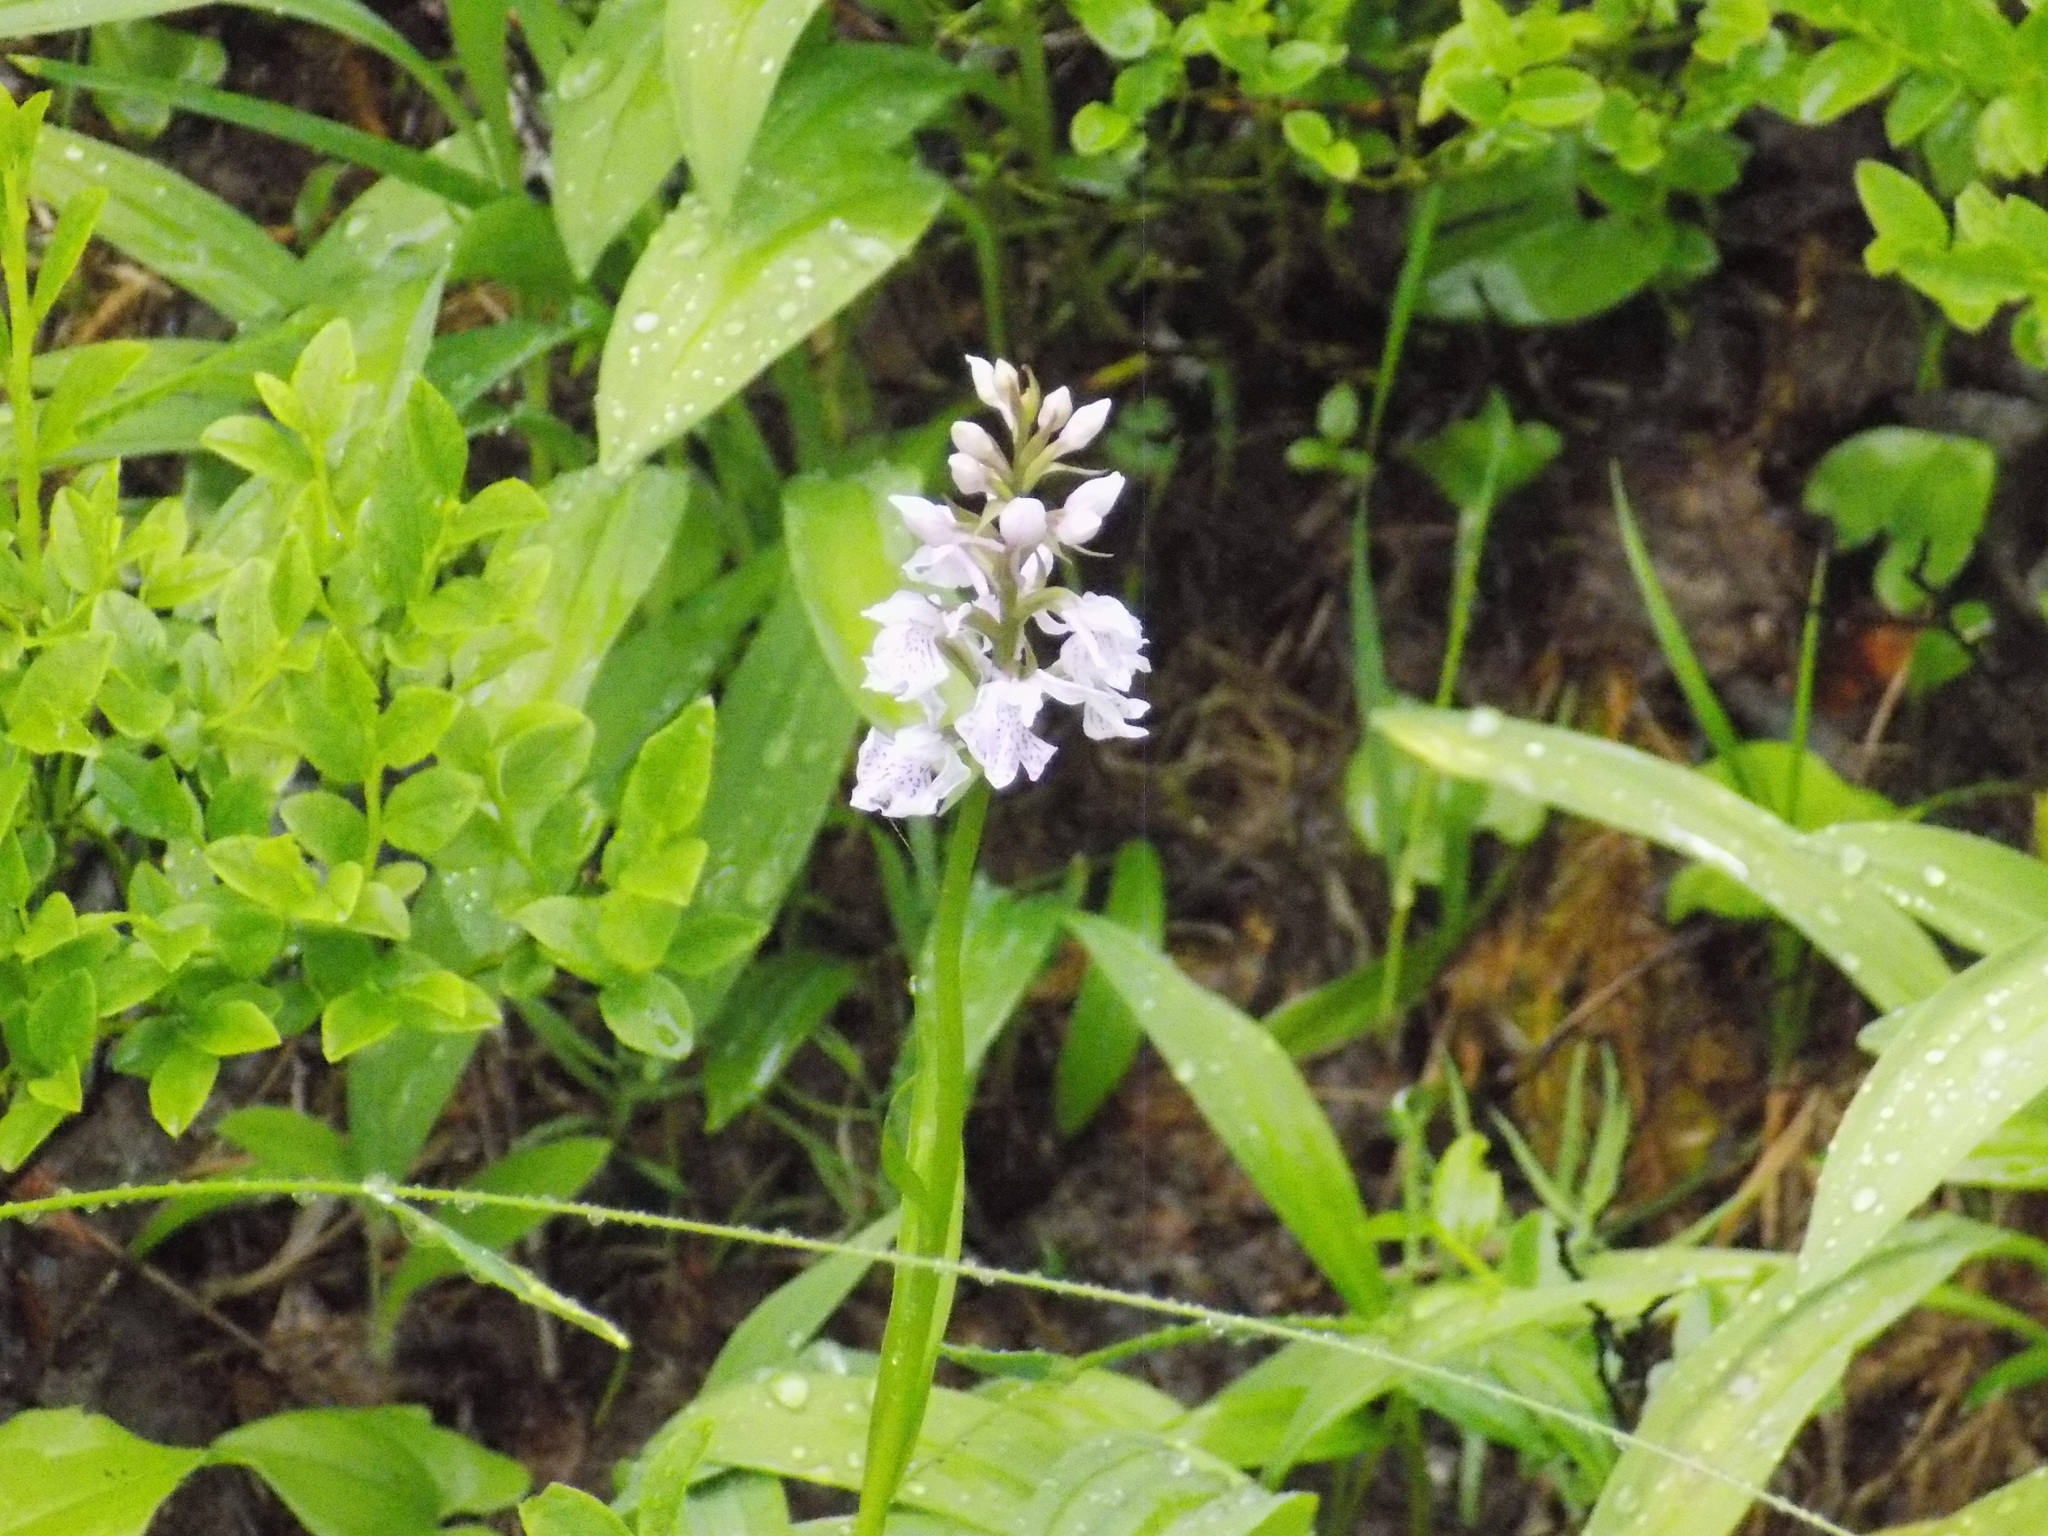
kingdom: Plantae
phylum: Tracheophyta
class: Liliopsida
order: Asparagales
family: Asparagaceae
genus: Maianthemum
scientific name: Maianthemum bifolium
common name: May lily
